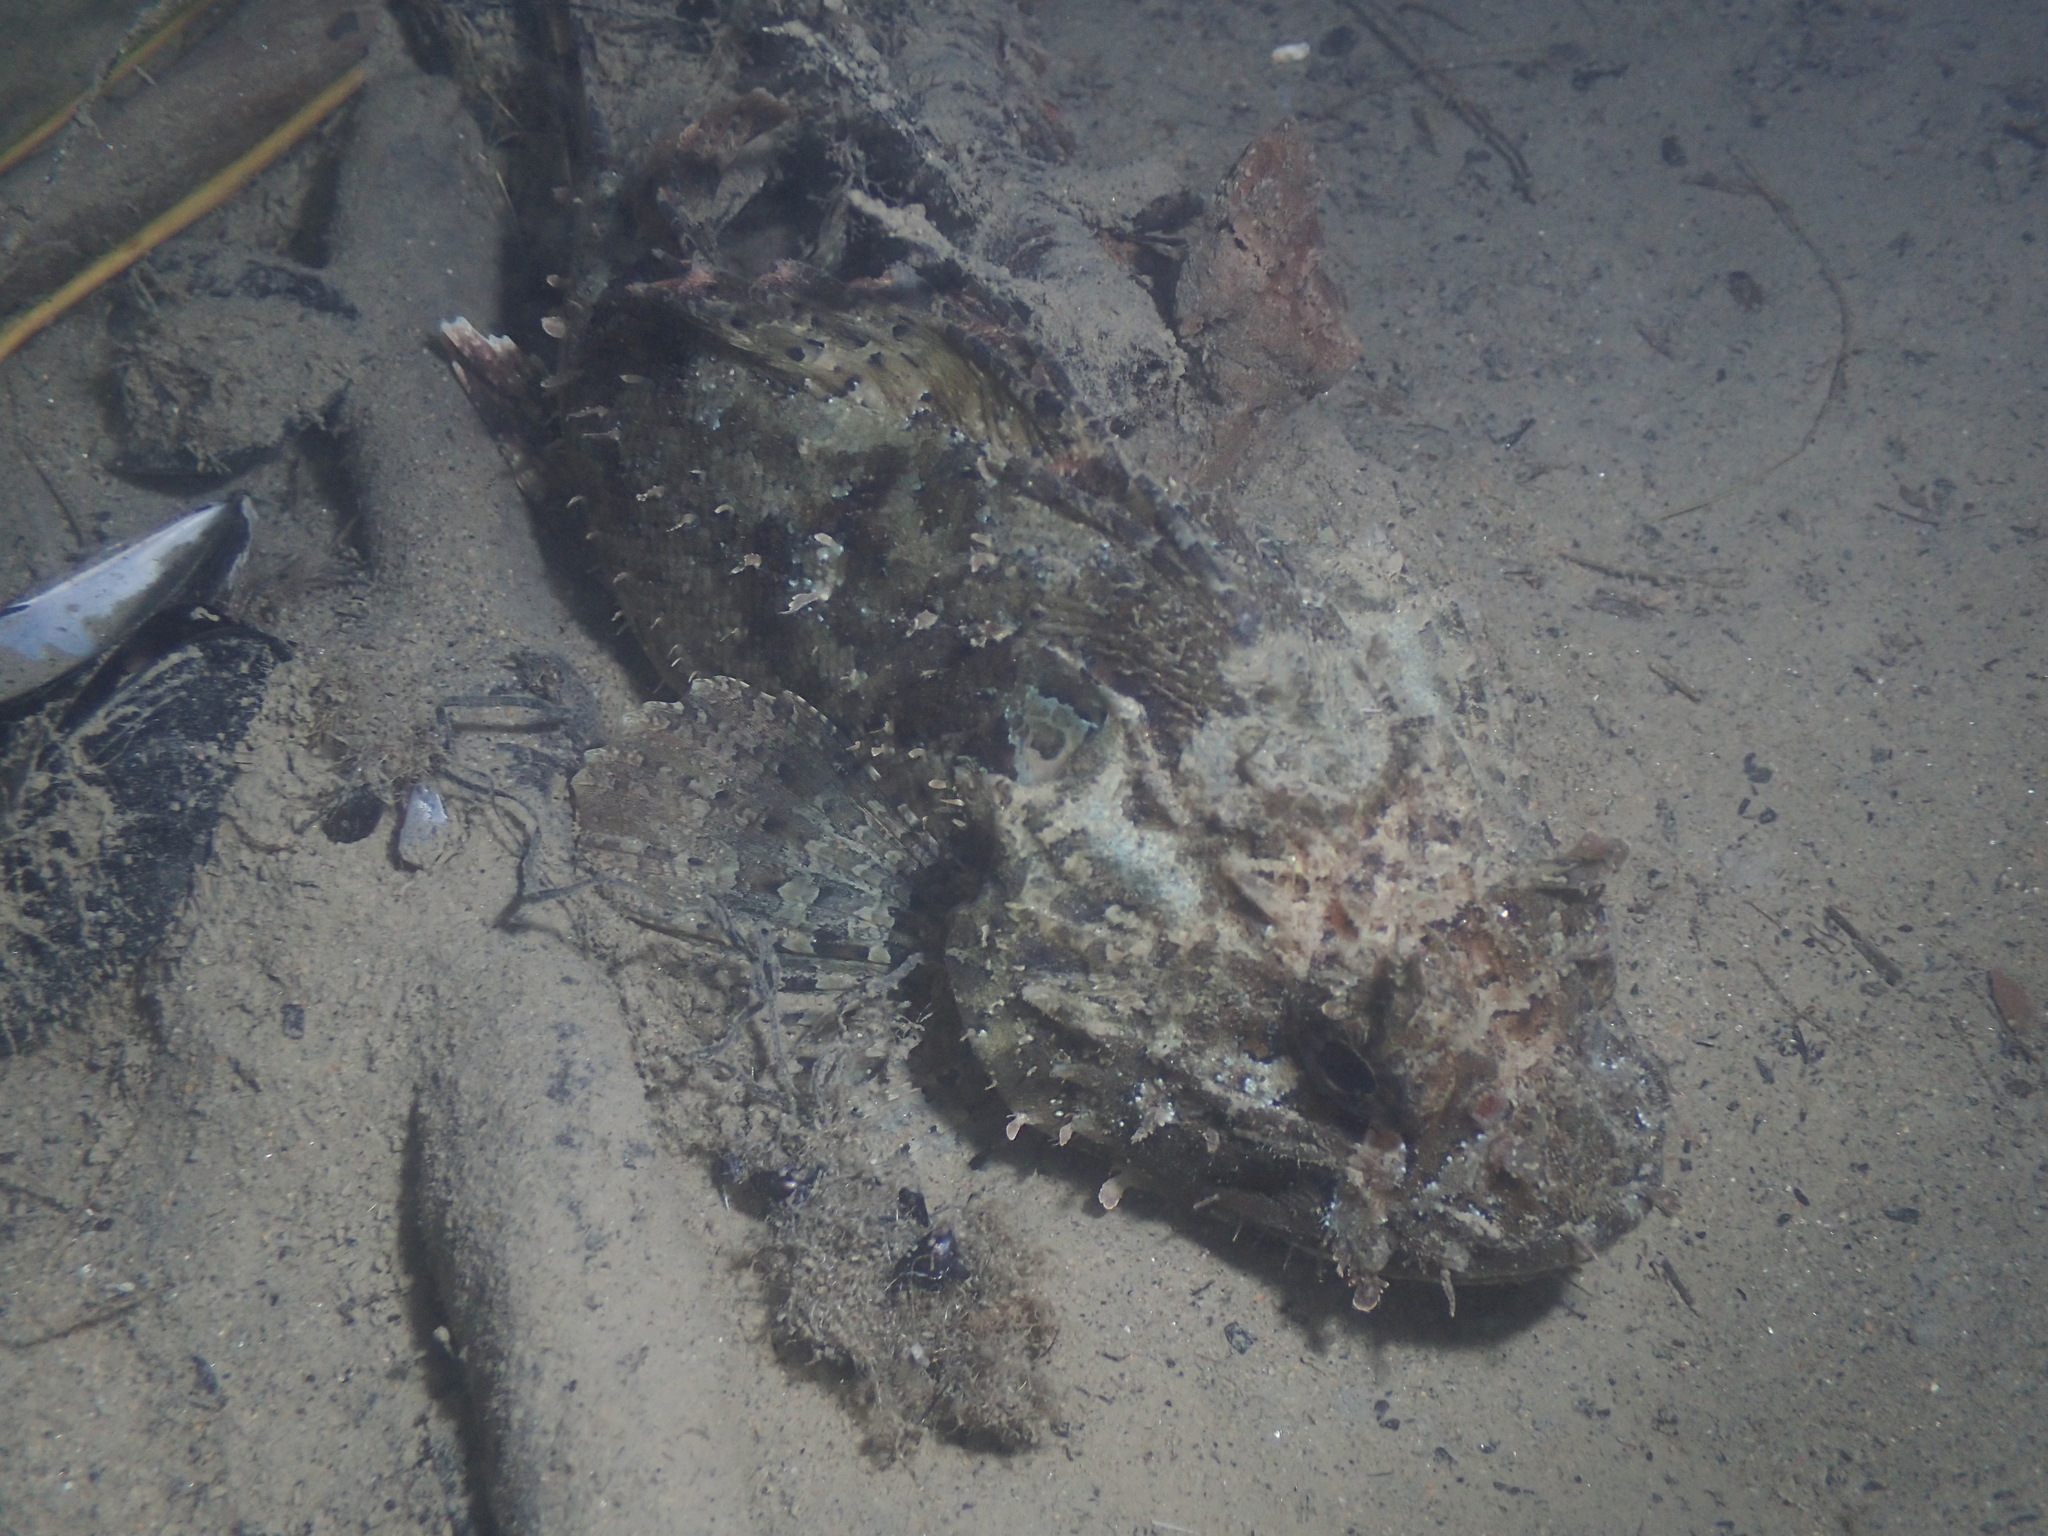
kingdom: Animalia
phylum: Chordata
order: Scorpaeniformes
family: Scorpaenidae
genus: Scorpaena
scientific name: Scorpaena porcus
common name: Black scorpionfish
